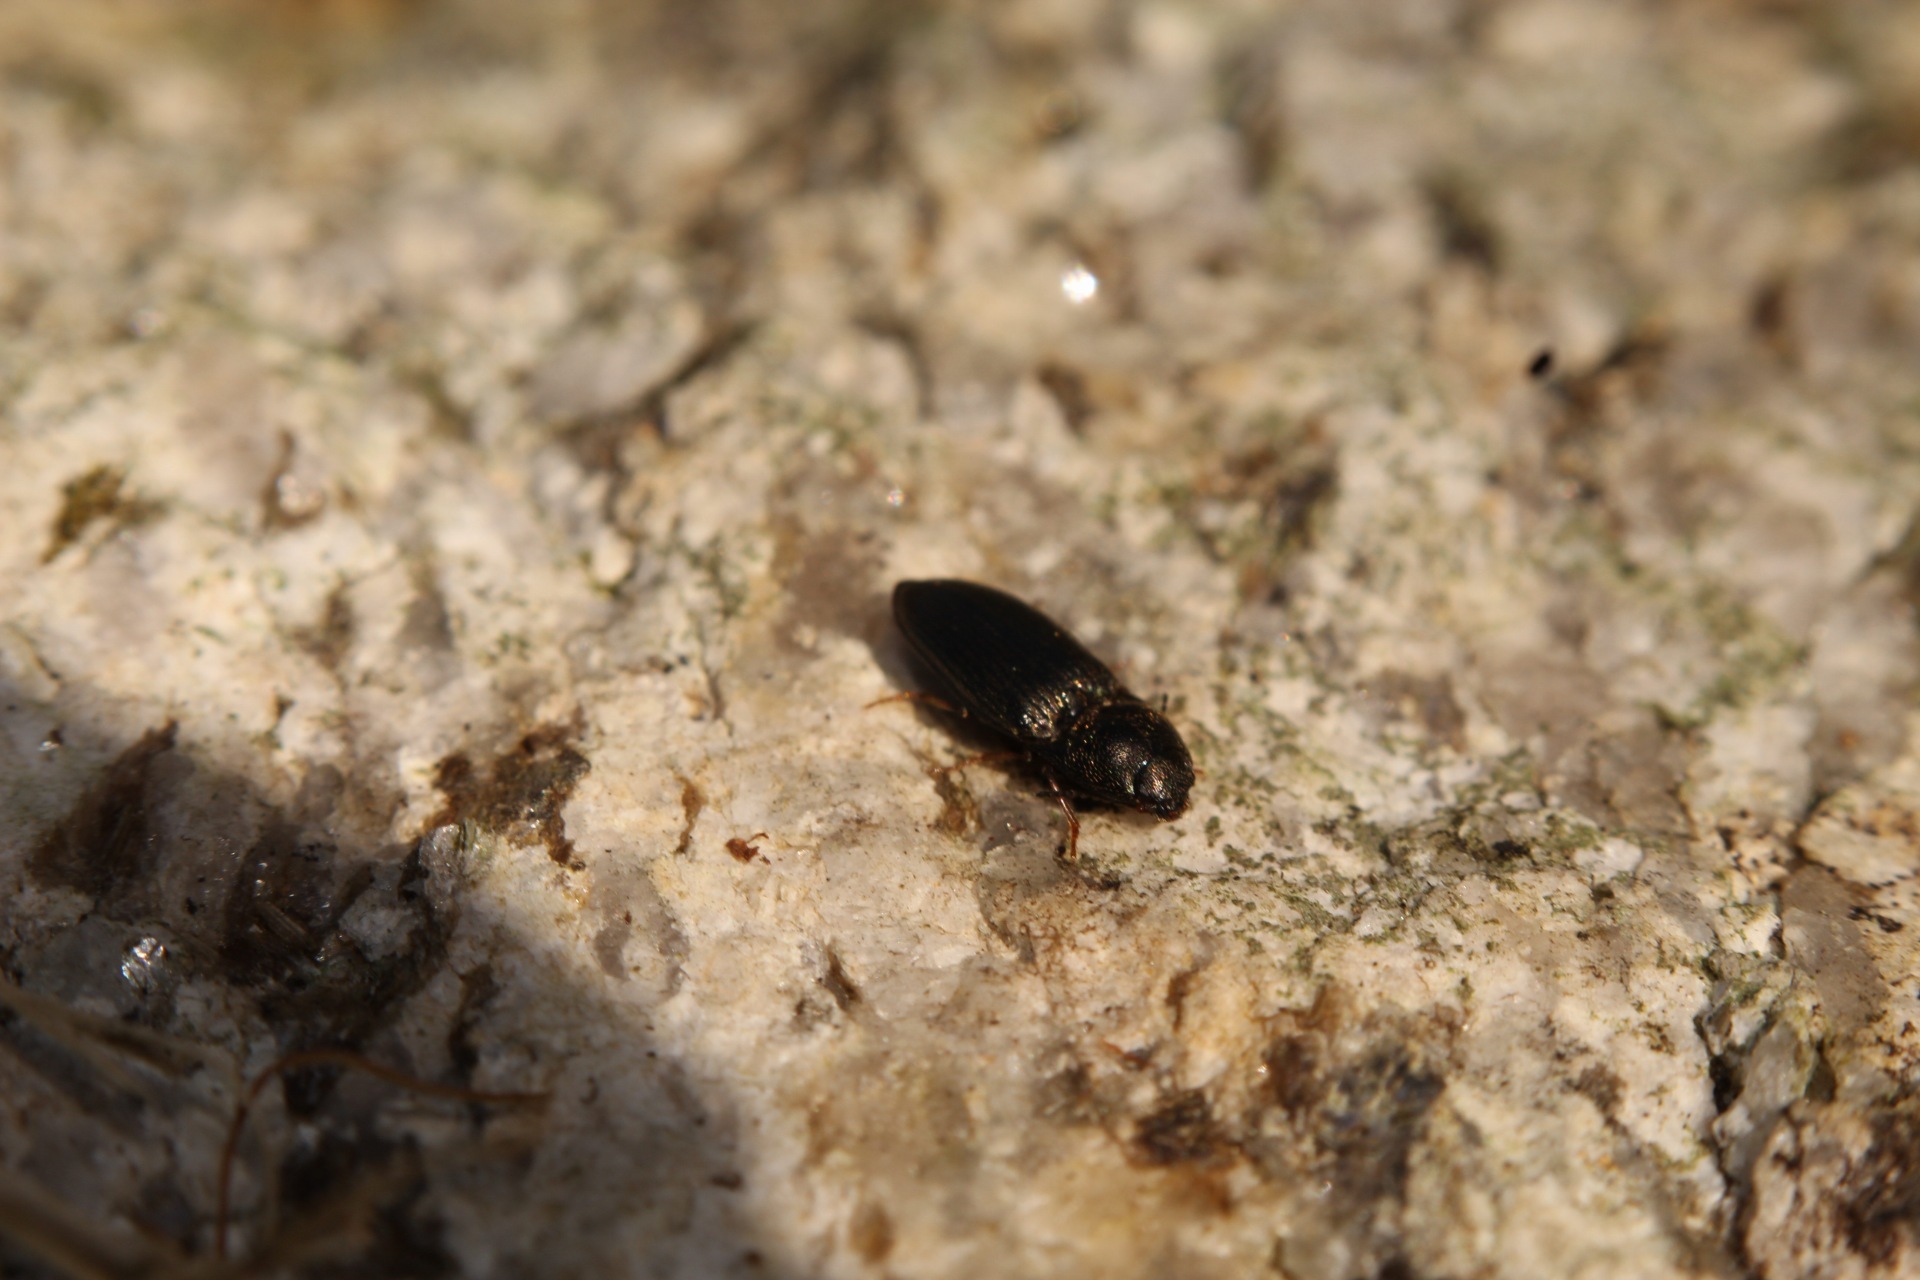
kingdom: Animalia
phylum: Arthropoda
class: Insecta
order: Coleoptera
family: Elateridae
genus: Hypnoidus
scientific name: Hypnoidus riparius
